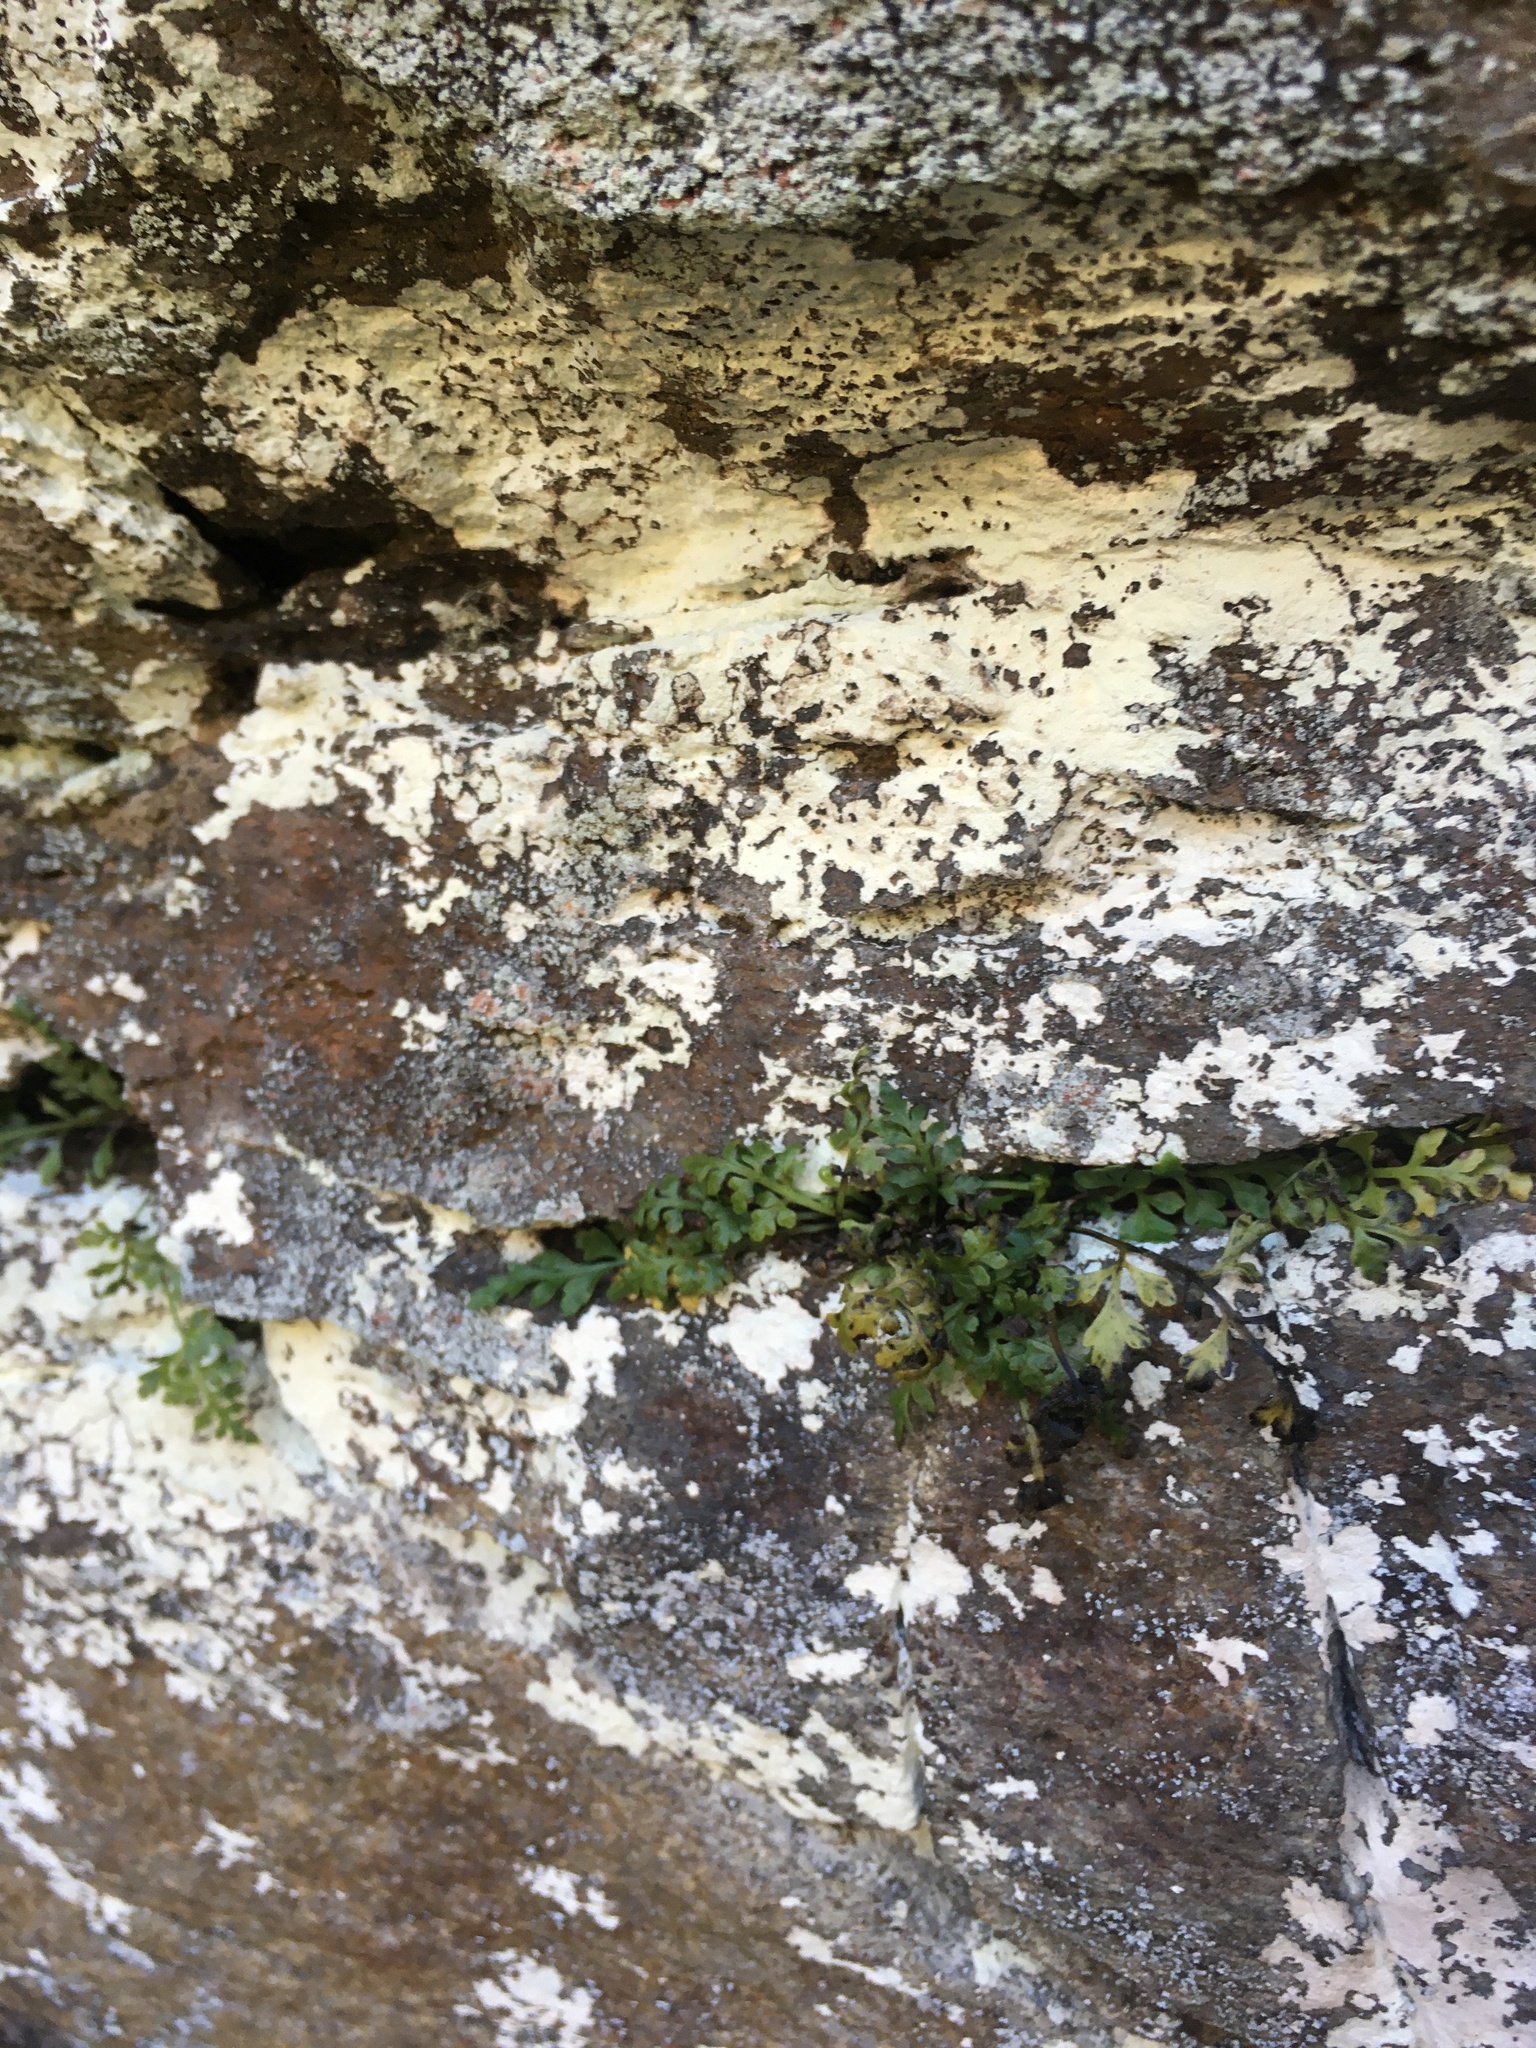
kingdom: Plantae
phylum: Tracheophyta
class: Polypodiopsida
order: Polypodiales
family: Aspleniaceae
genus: Asplenium
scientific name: Asplenium montanum
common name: Mountain spleenwort
